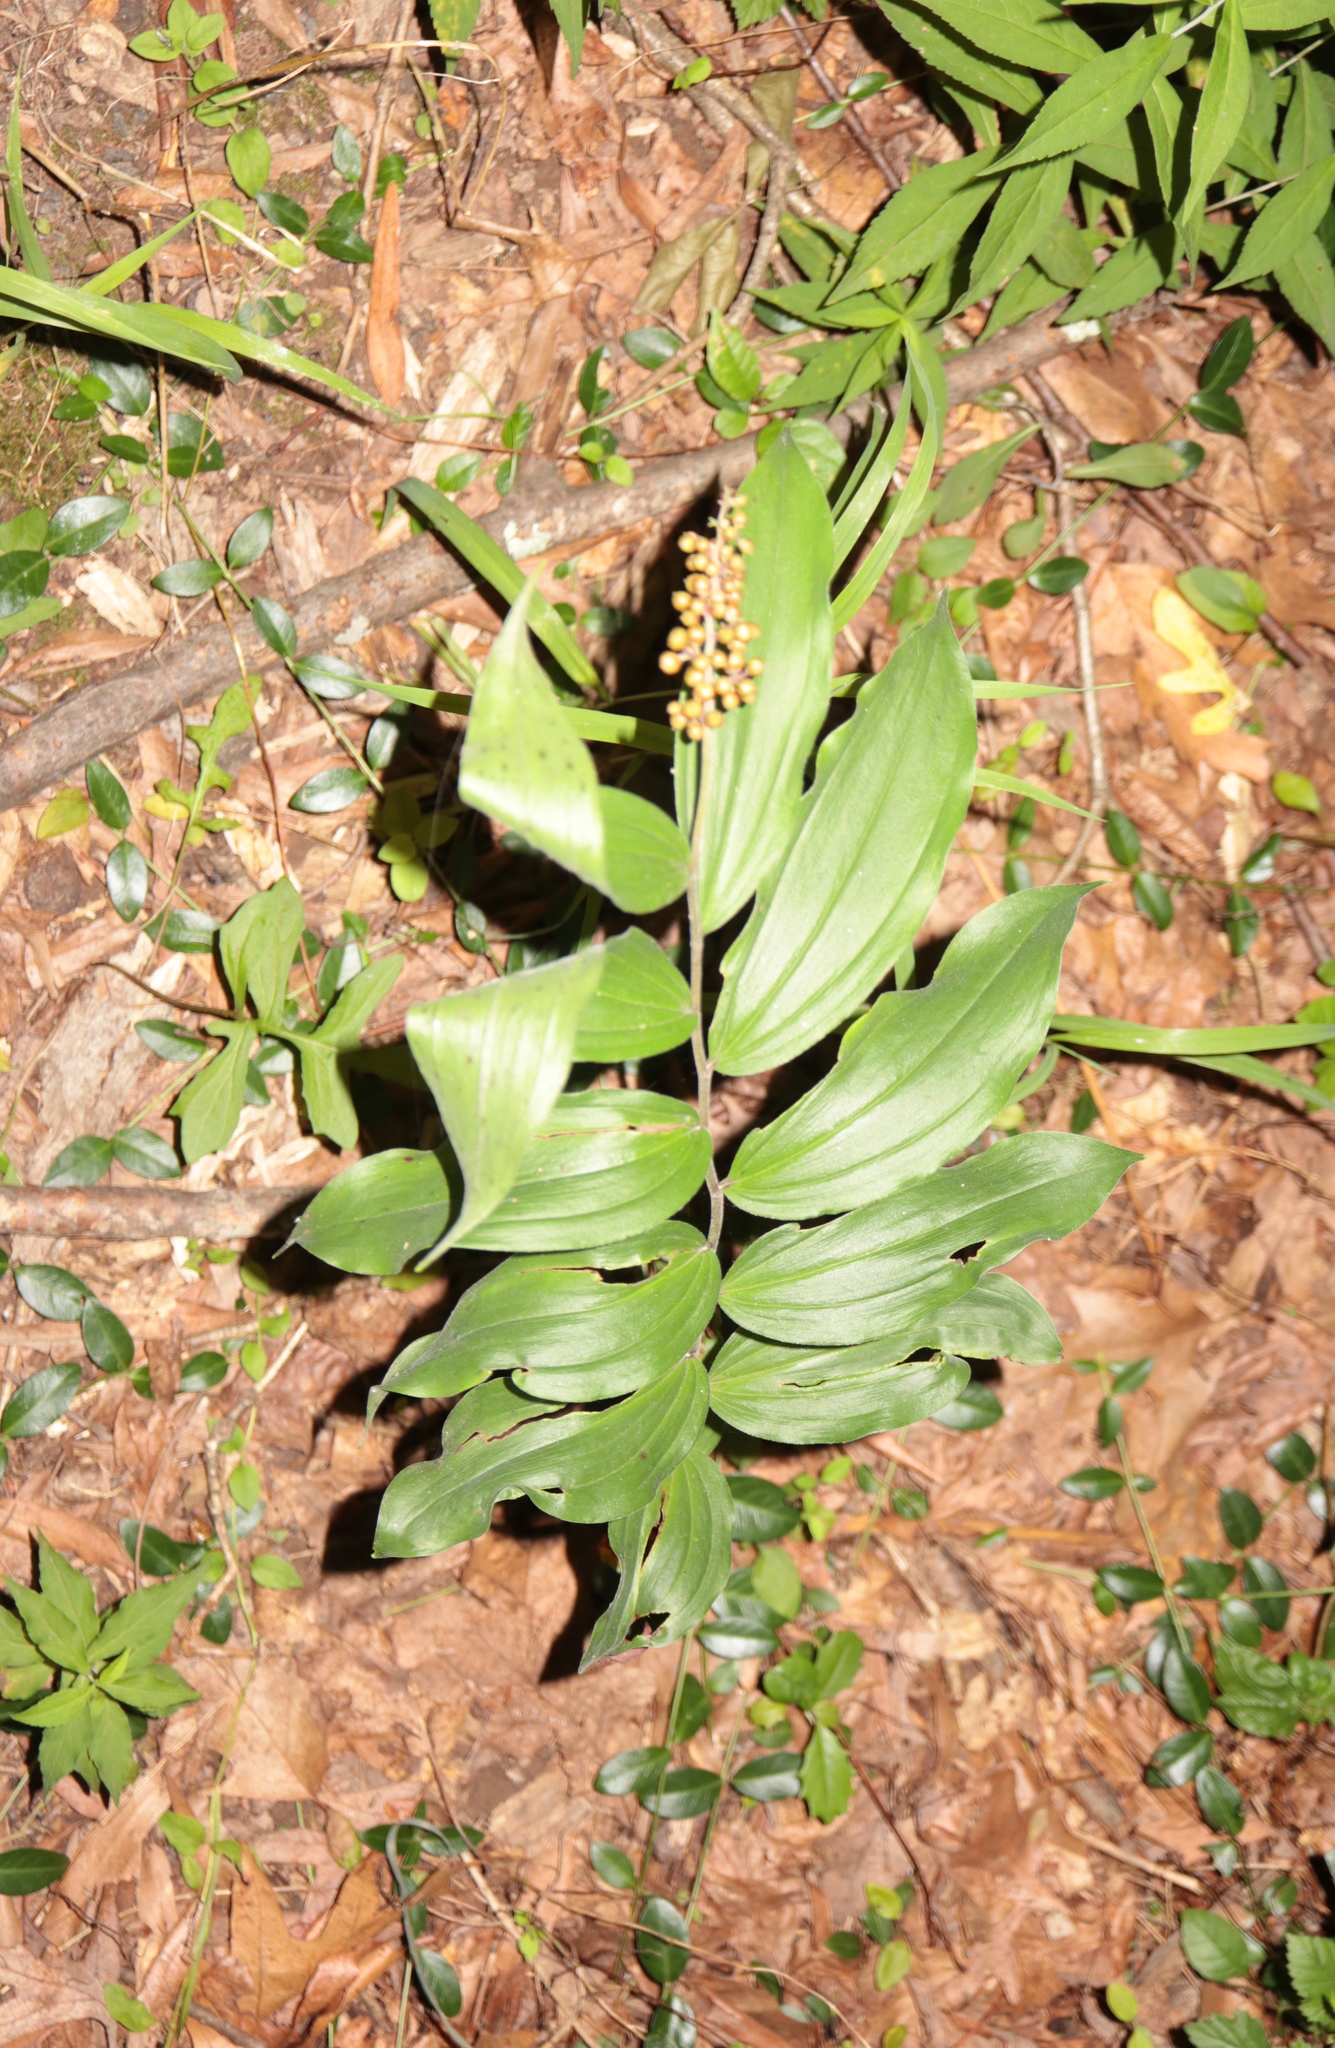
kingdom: Plantae
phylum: Tracheophyta
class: Liliopsida
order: Asparagales
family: Asparagaceae
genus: Maianthemum
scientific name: Maianthemum racemosum
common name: False spikenard
